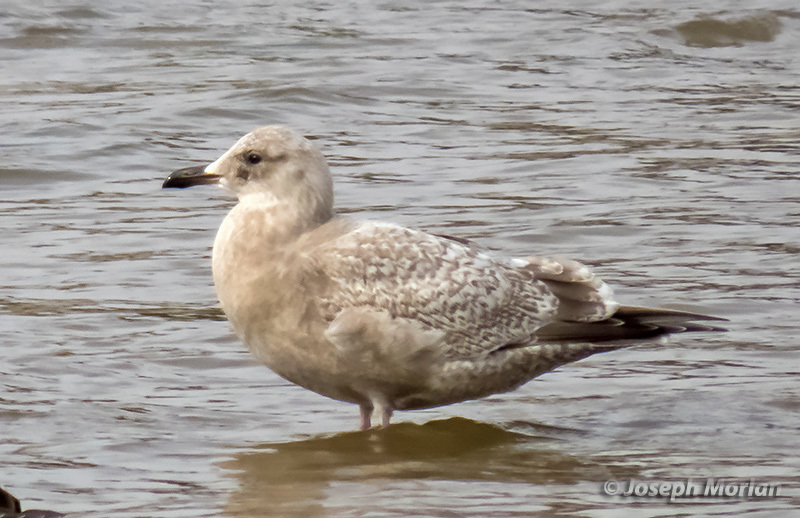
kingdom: Animalia
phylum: Chordata
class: Aves
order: Charadriiformes
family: Laridae
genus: Larus
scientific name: Larus argentatus
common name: Herring gull
